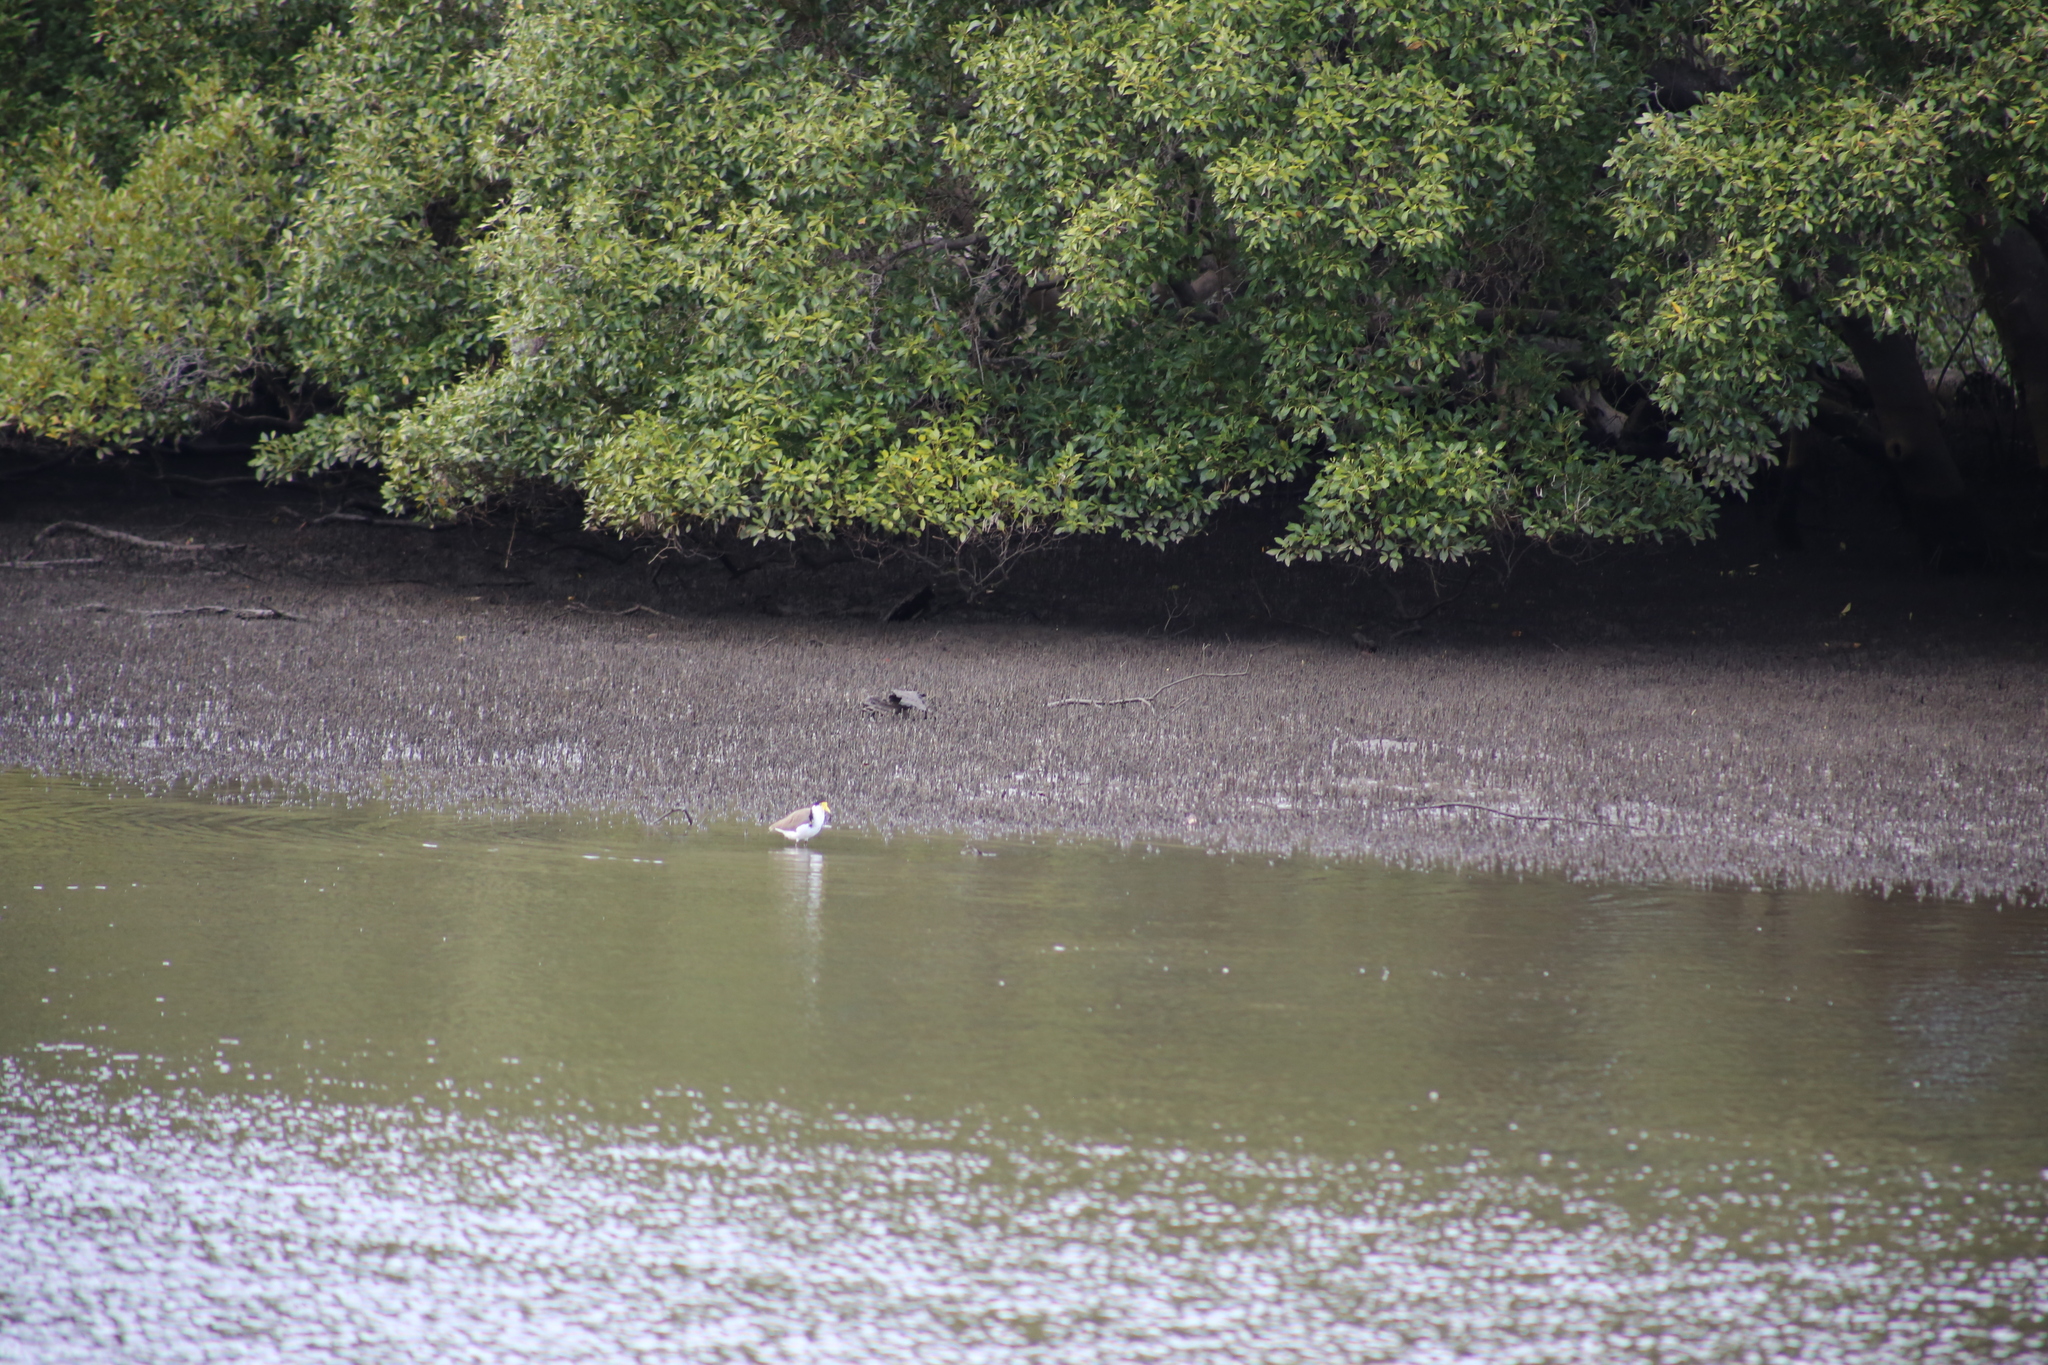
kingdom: Animalia
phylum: Chordata
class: Aves
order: Charadriiformes
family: Charadriidae
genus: Vanellus
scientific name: Vanellus miles
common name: Masked lapwing
